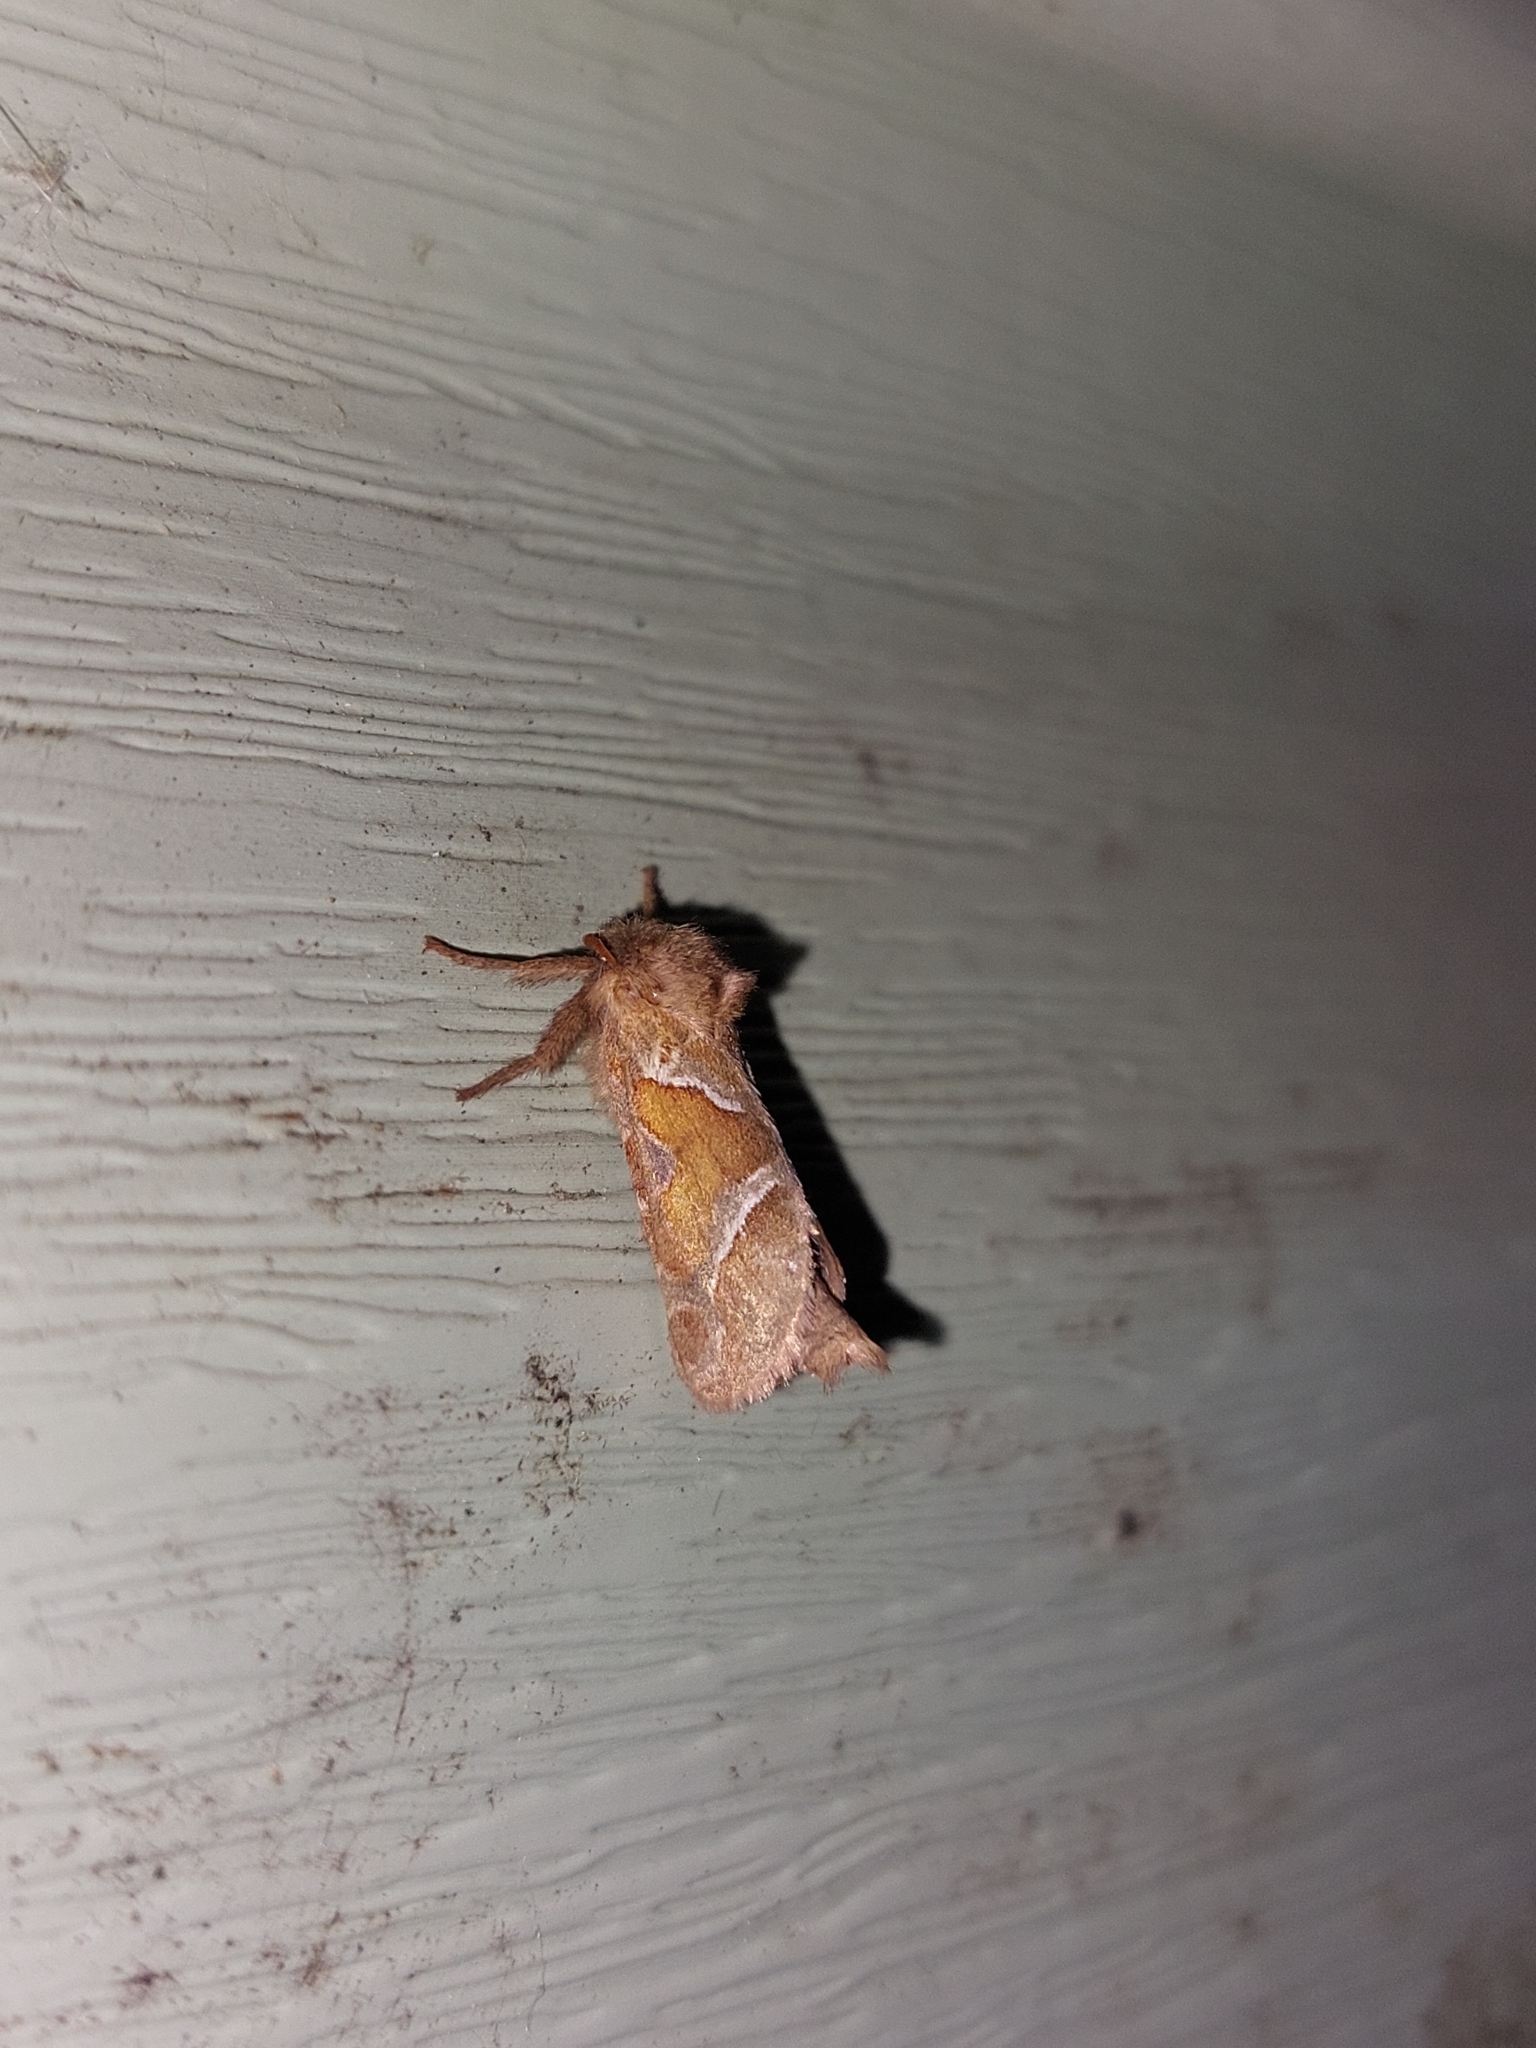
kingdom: Animalia
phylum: Arthropoda
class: Insecta
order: Lepidoptera
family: Hepialidae
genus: Triodia
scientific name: Triodia sylvina
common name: Orange swift
